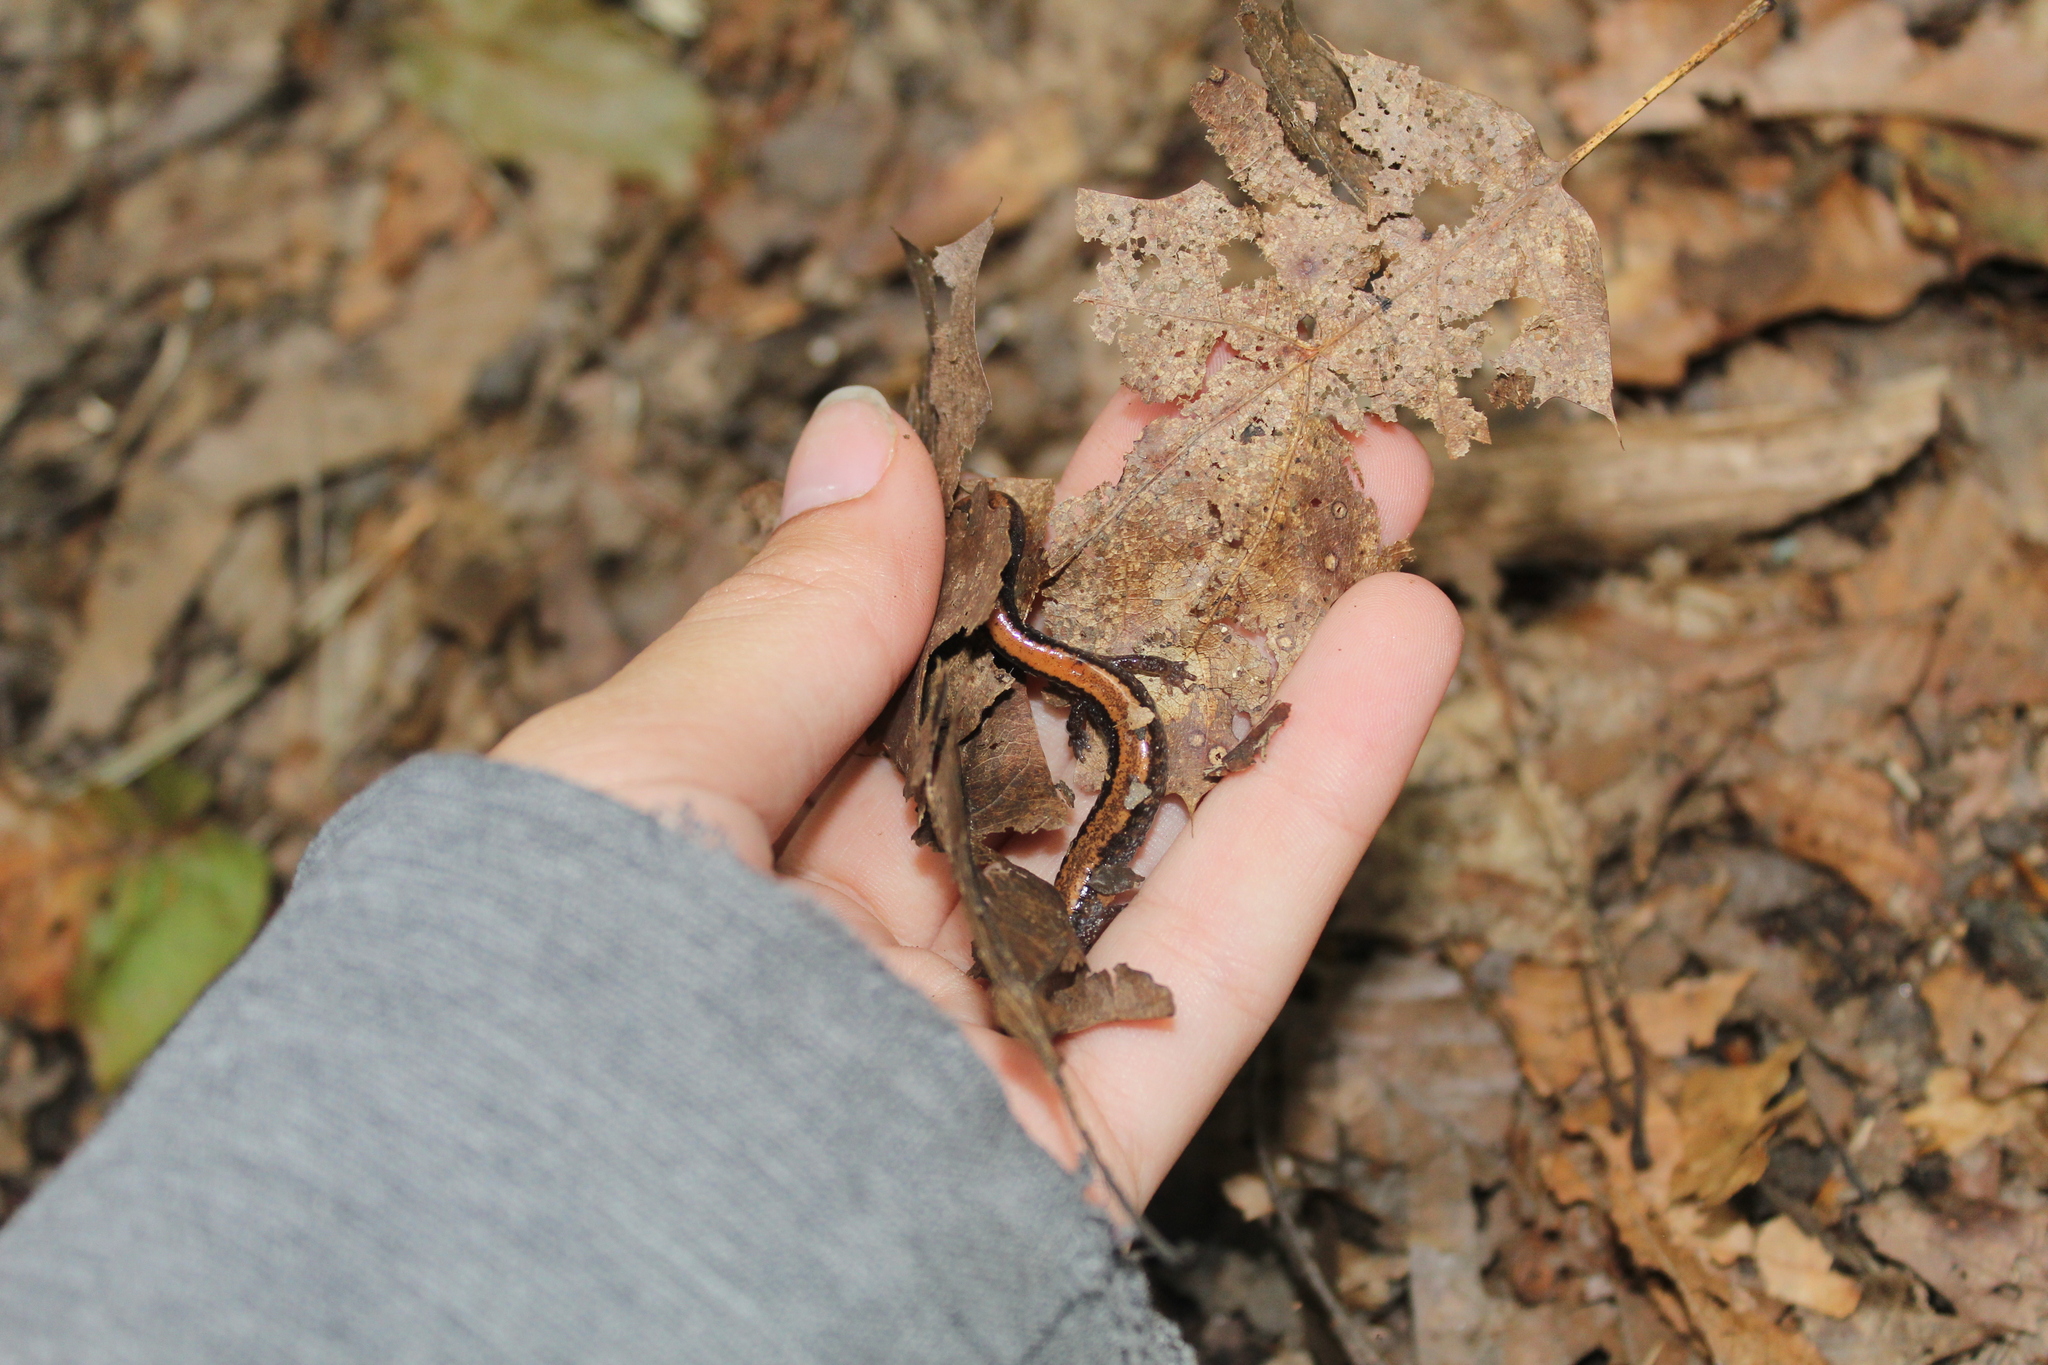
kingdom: Animalia
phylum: Chordata
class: Amphibia
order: Caudata
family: Plethodontidae
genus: Plethodon
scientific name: Plethodon cinereus
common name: Redback salamander
